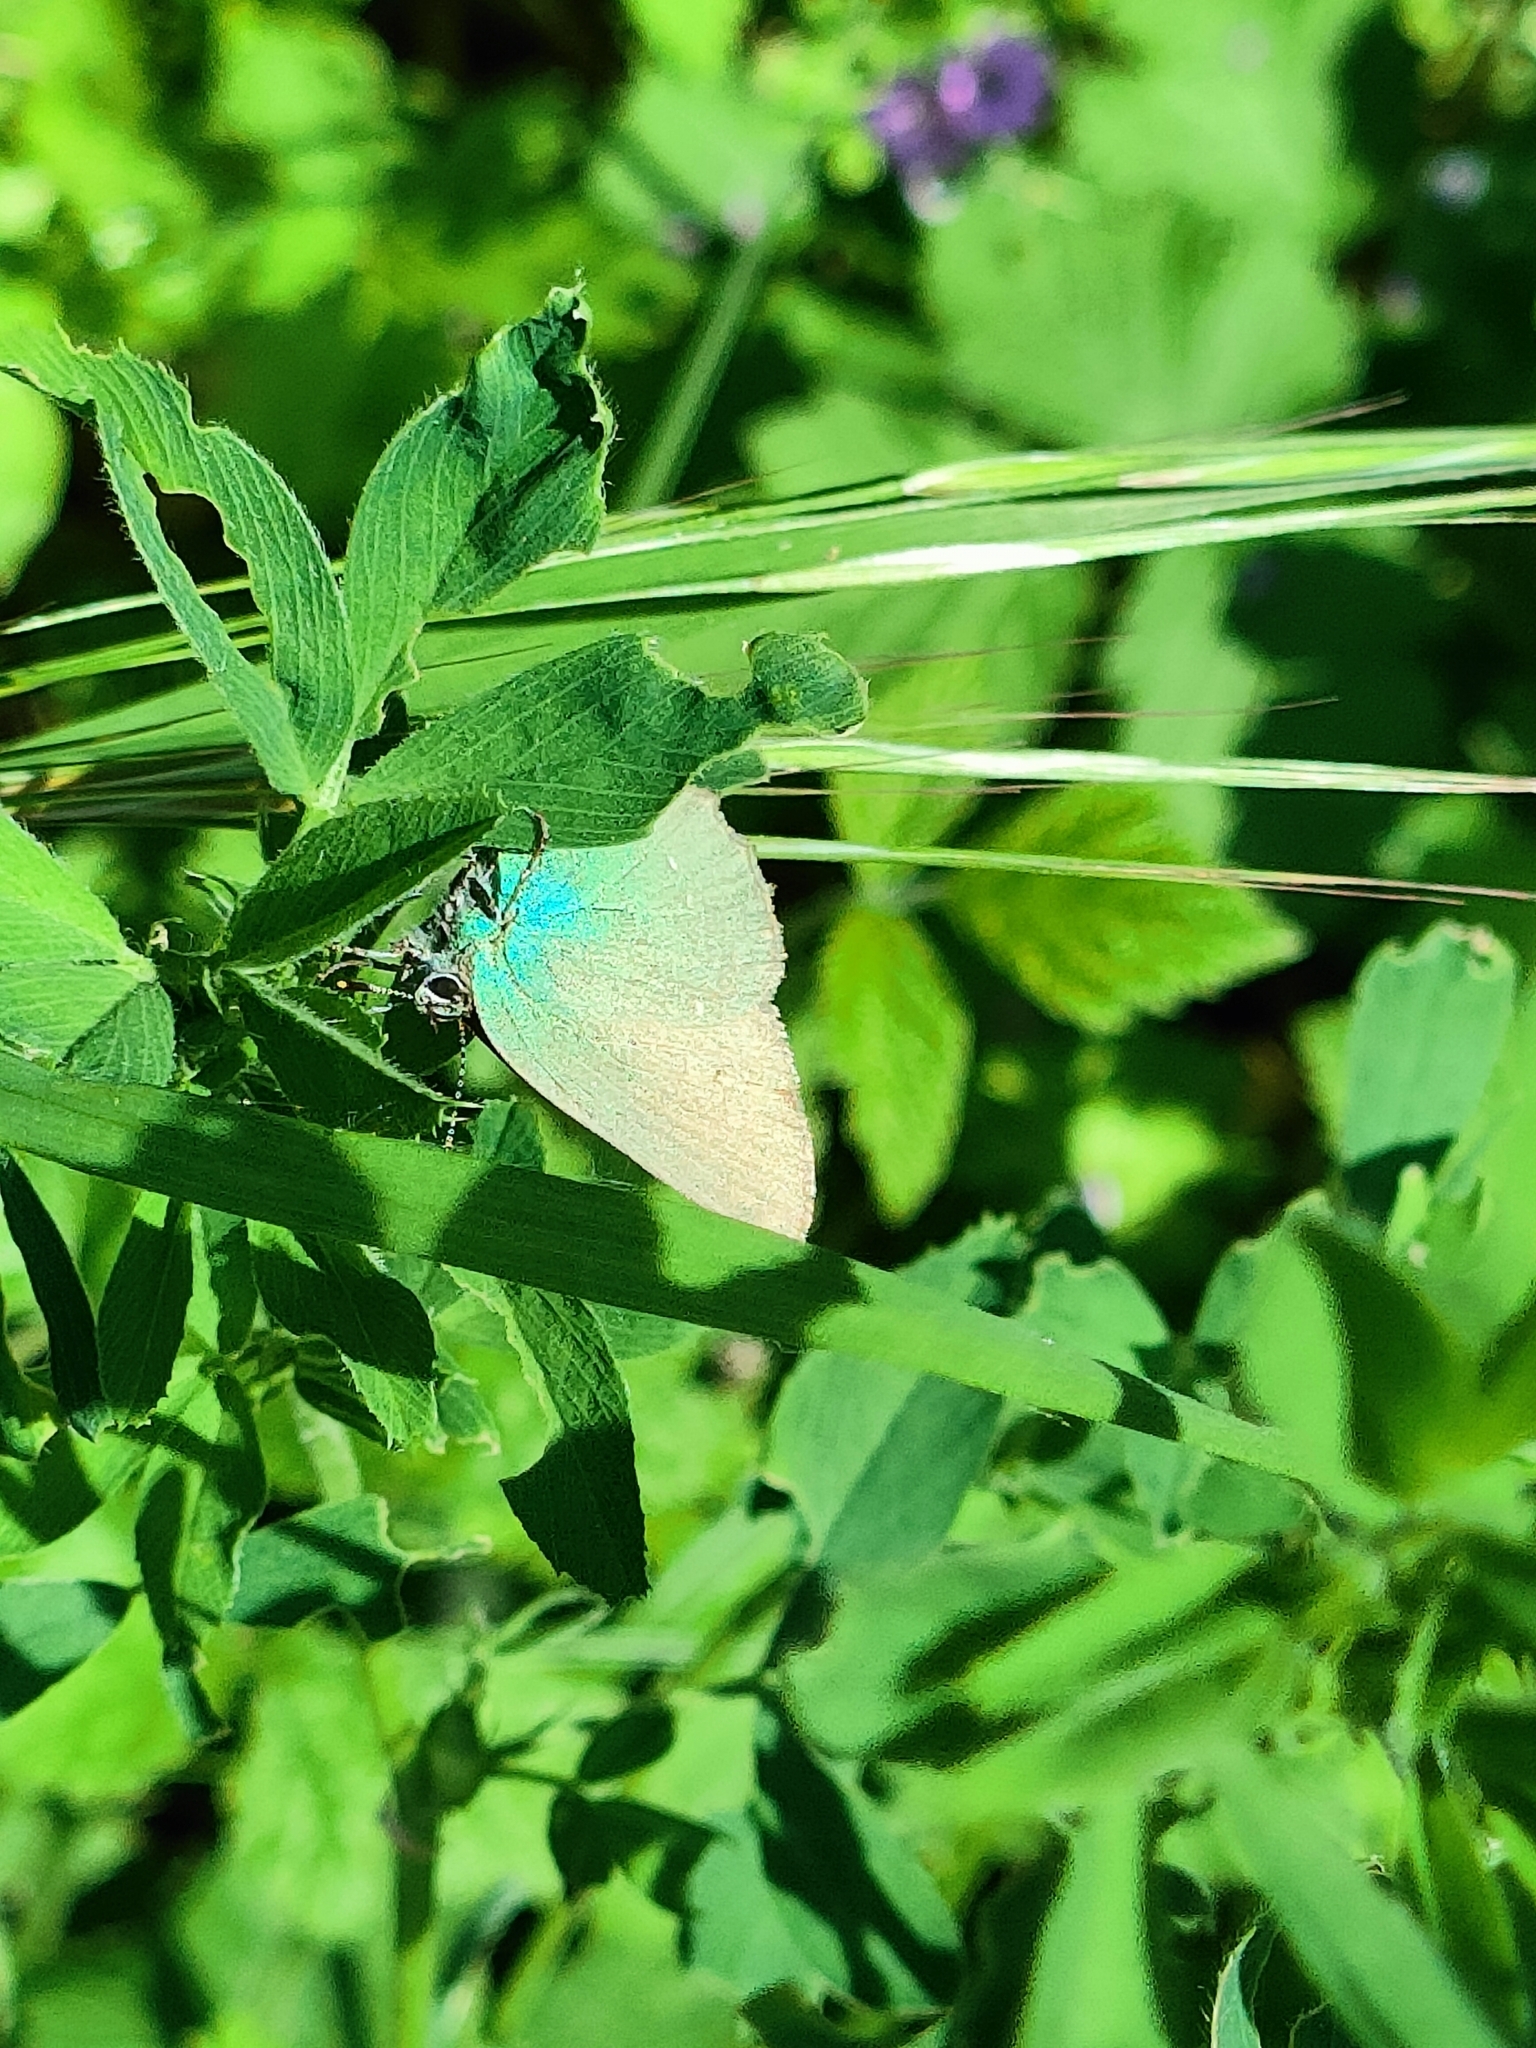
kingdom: Animalia
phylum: Arthropoda
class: Insecta
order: Lepidoptera
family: Lycaenidae
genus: Callophrys
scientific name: Callophrys rubi
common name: Green hairstreak
